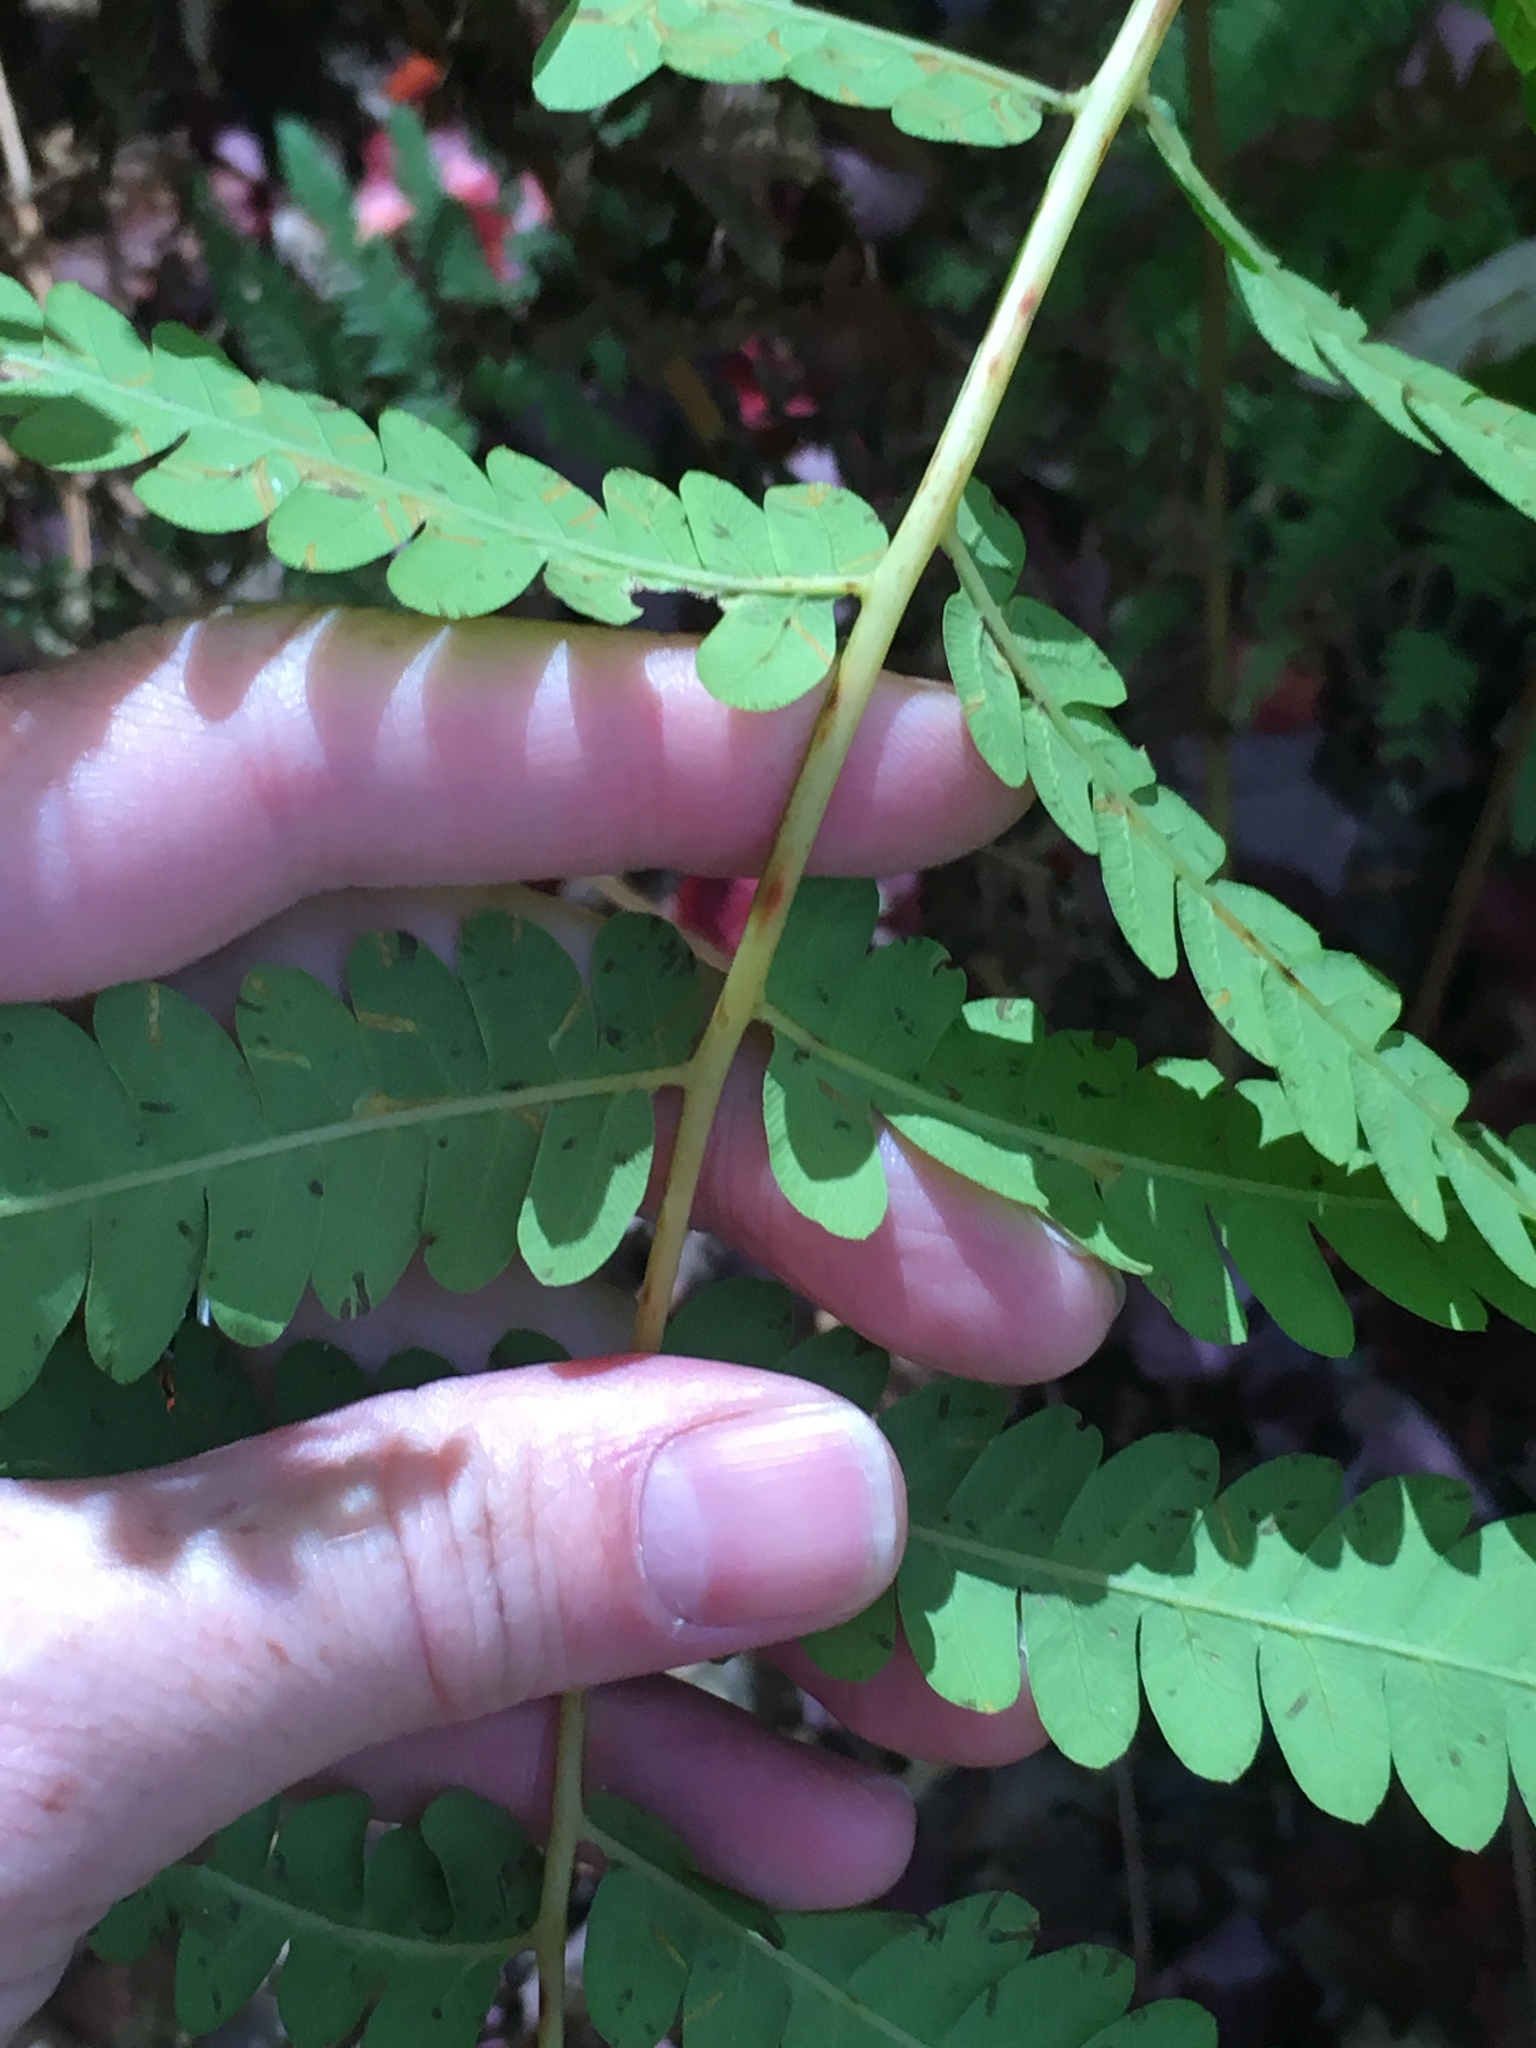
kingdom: Plantae
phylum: Tracheophyta
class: Polypodiopsida
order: Osmundales
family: Osmundaceae
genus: Claytosmunda
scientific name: Claytosmunda claytoniana
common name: Clayton's fern
